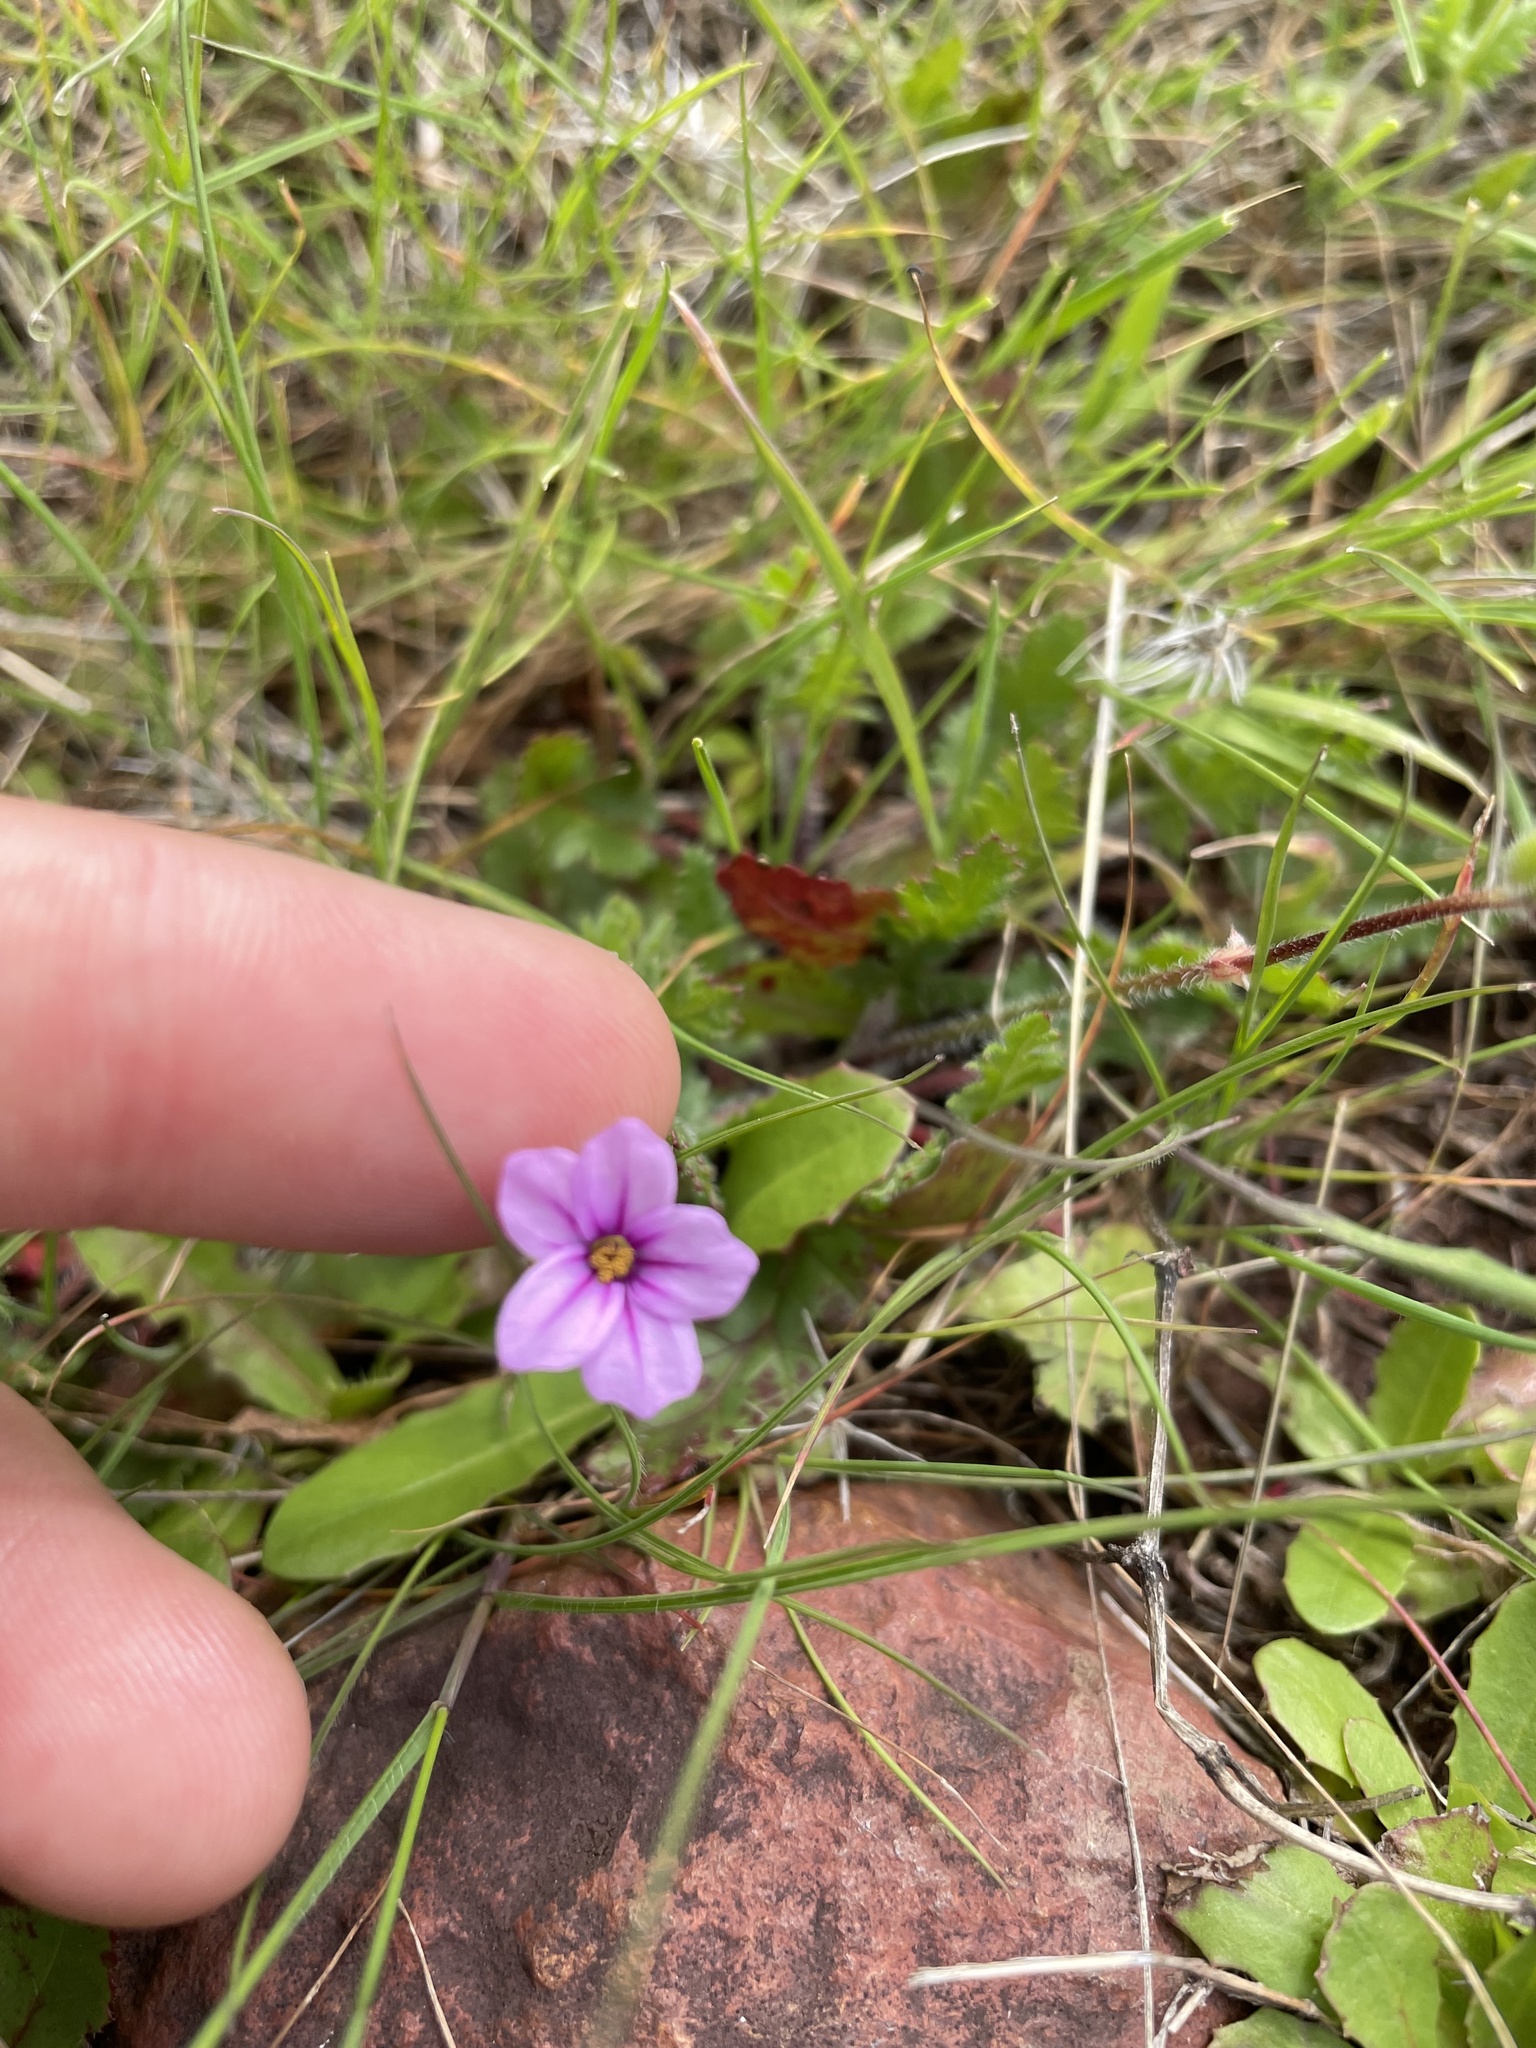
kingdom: Plantae
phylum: Tracheophyta
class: Magnoliopsida
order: Geraniales
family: Geraniaceae
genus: Erodium
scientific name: Erodium botrys
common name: Mediterranean stork's-bill
